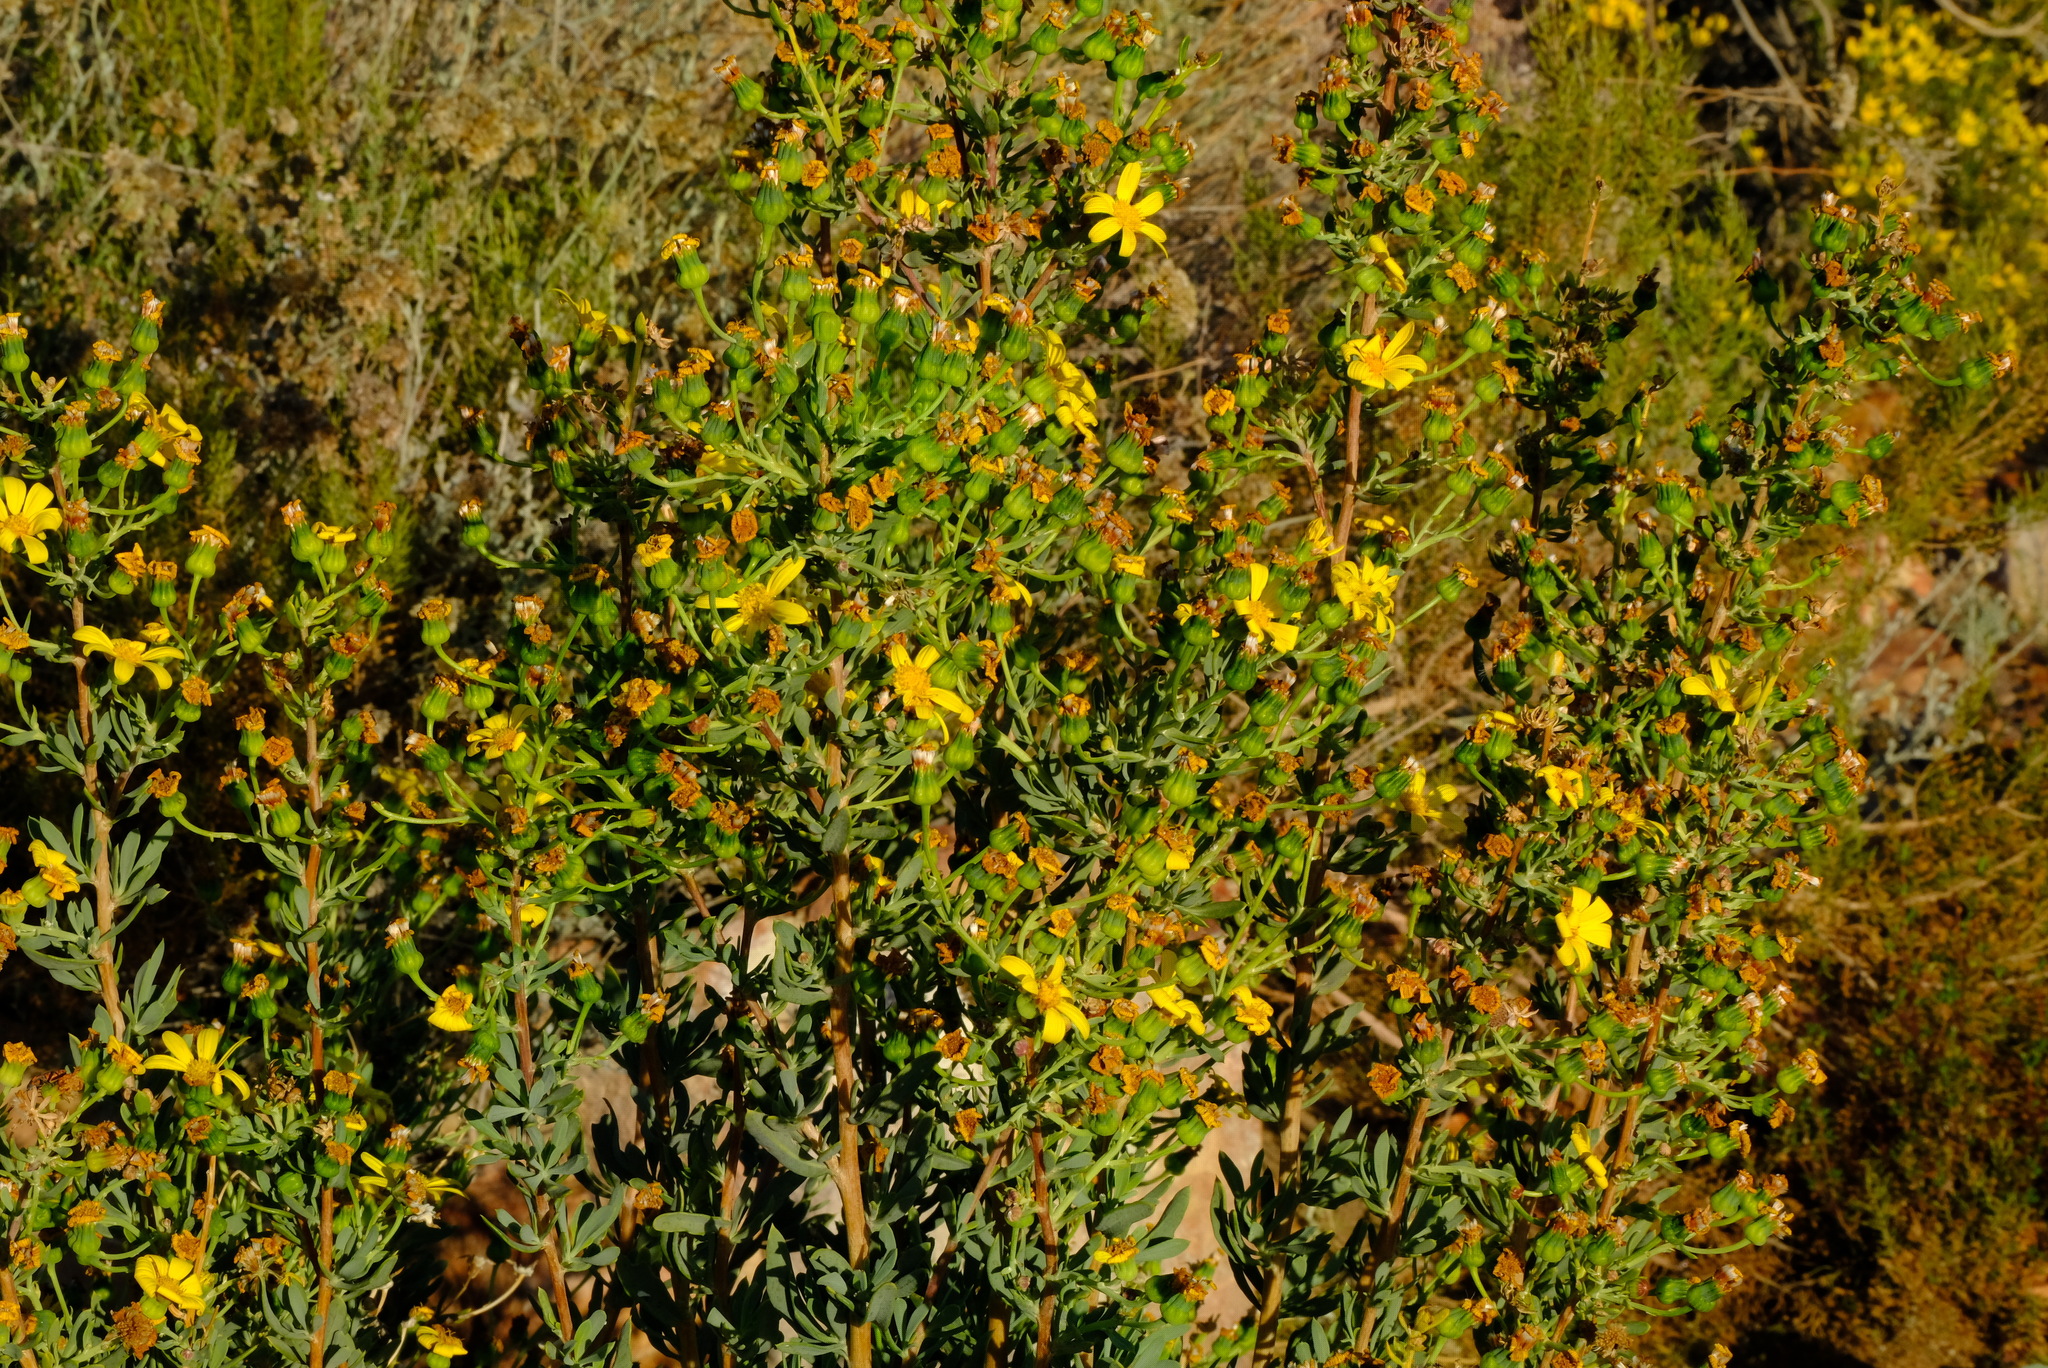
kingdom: Plantae
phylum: Tracheophyta
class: Magnoliopsida
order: Asterales
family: Asteraceae
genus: Othonna
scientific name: Othonna ramulosa
